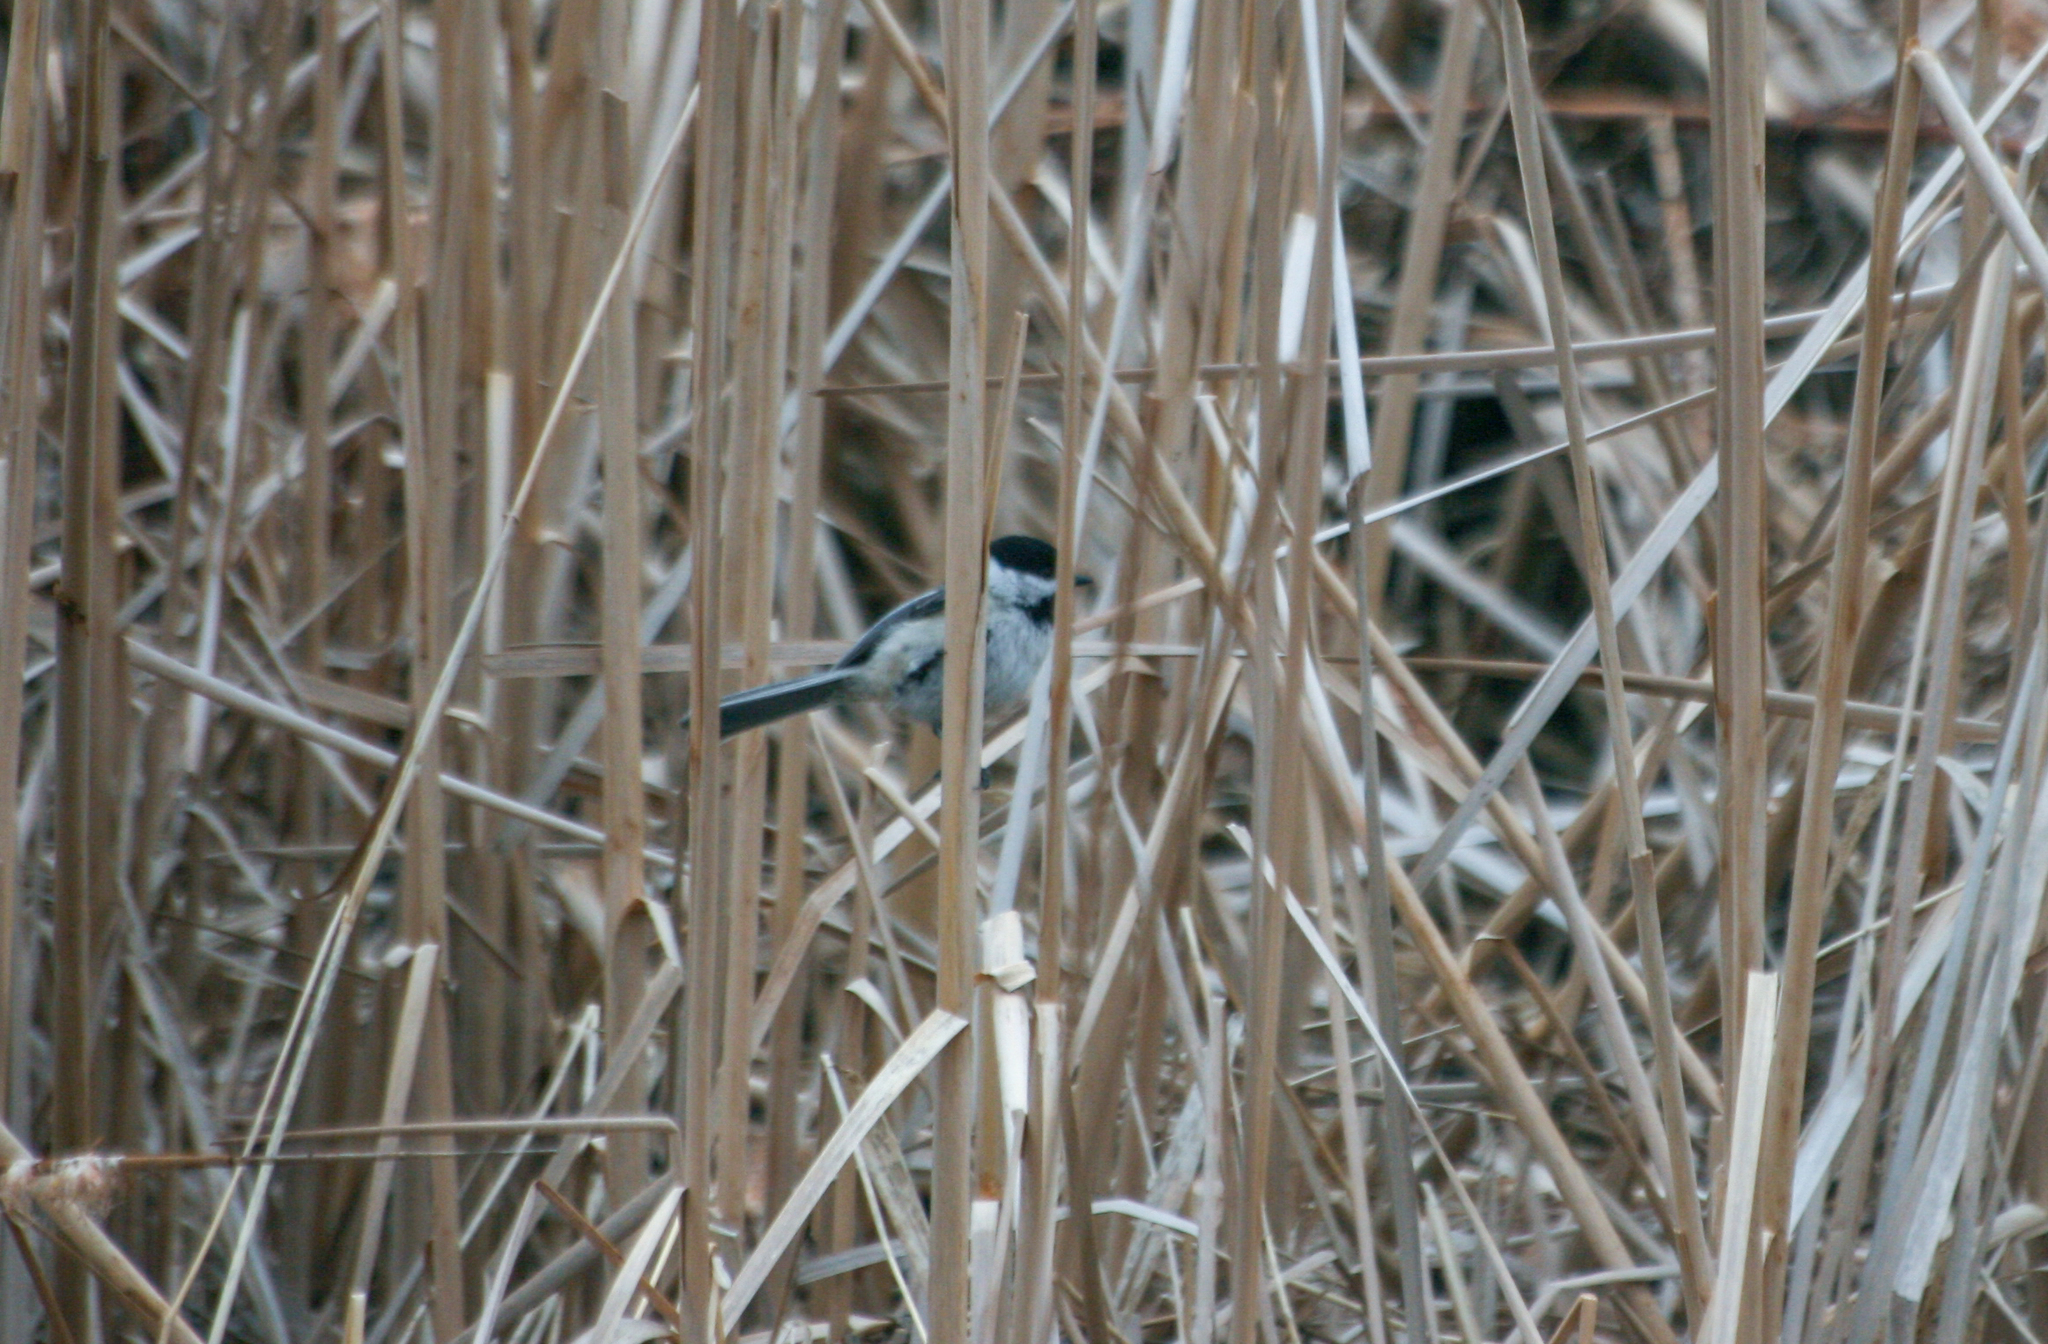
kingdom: Animalia
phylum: Chordata
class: Aves
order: Passeriformes
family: Paridae
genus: Poecile
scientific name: Poecile atricapillus
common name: Black-capped chickadee
